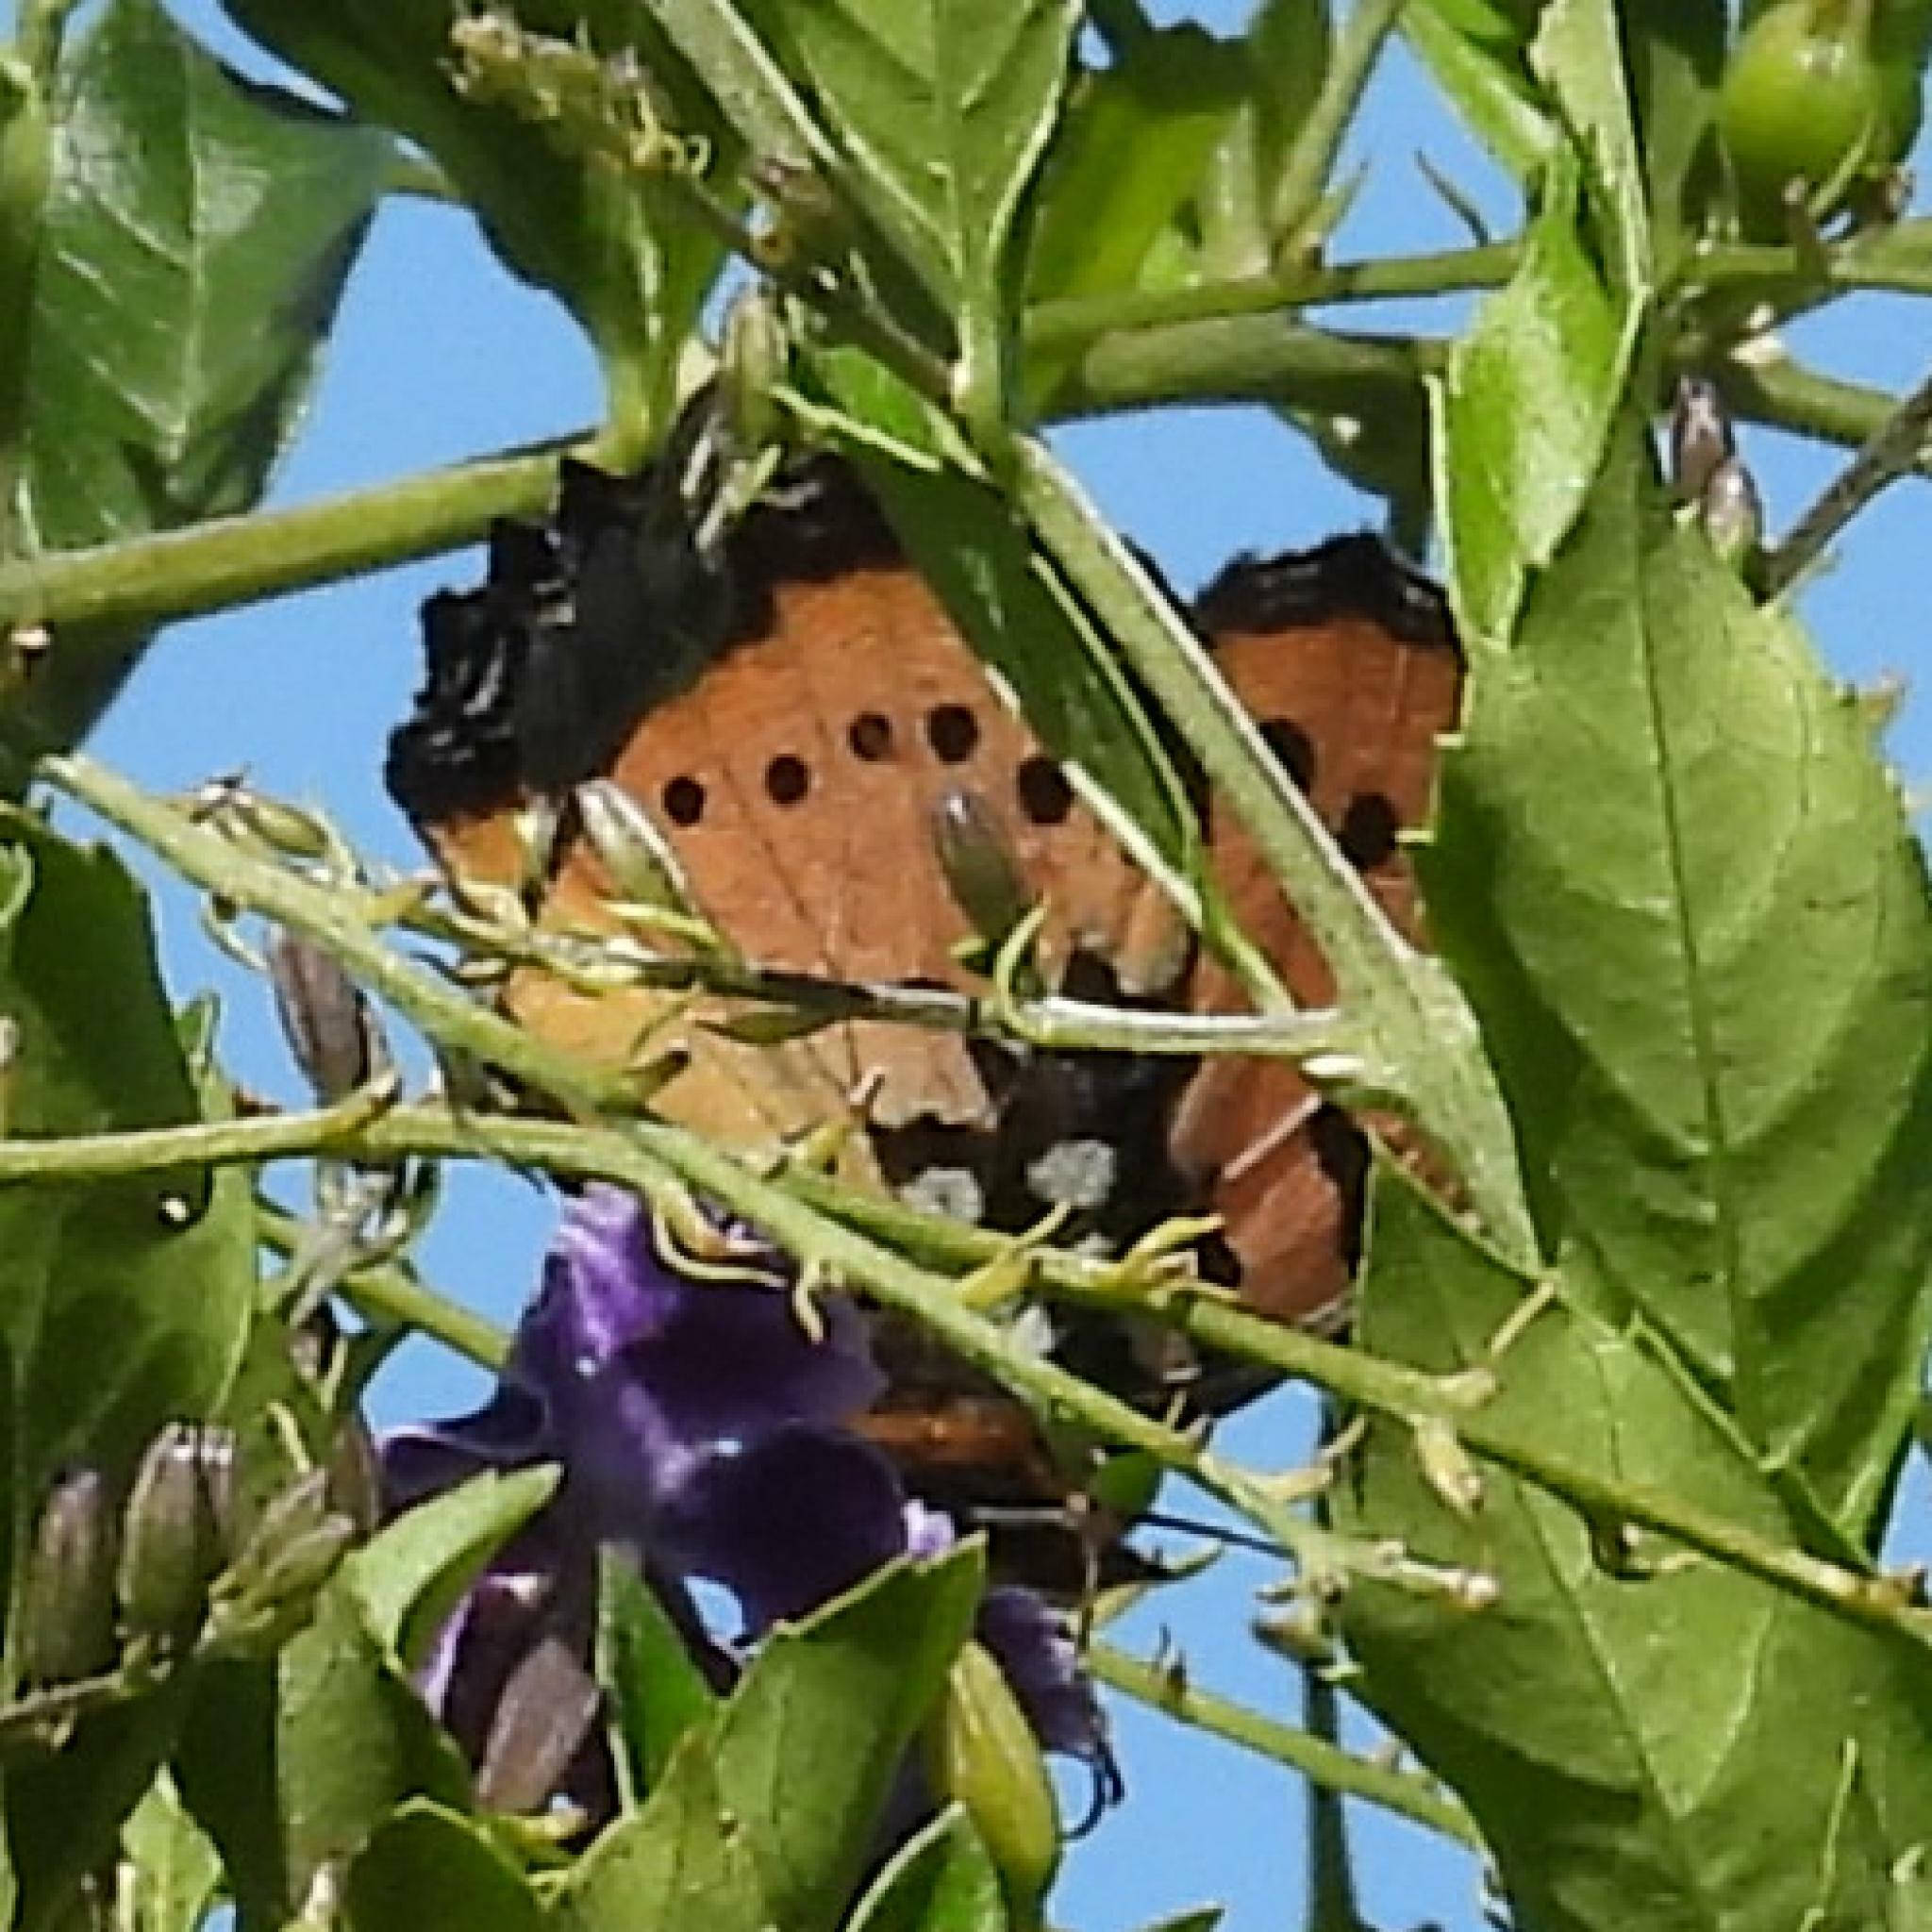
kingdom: Animalia
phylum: Arthropoda
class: Insecta
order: Lepidoptera
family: Nymphalidae
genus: Precis
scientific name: Precis octavia
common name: Gaudy commodore
